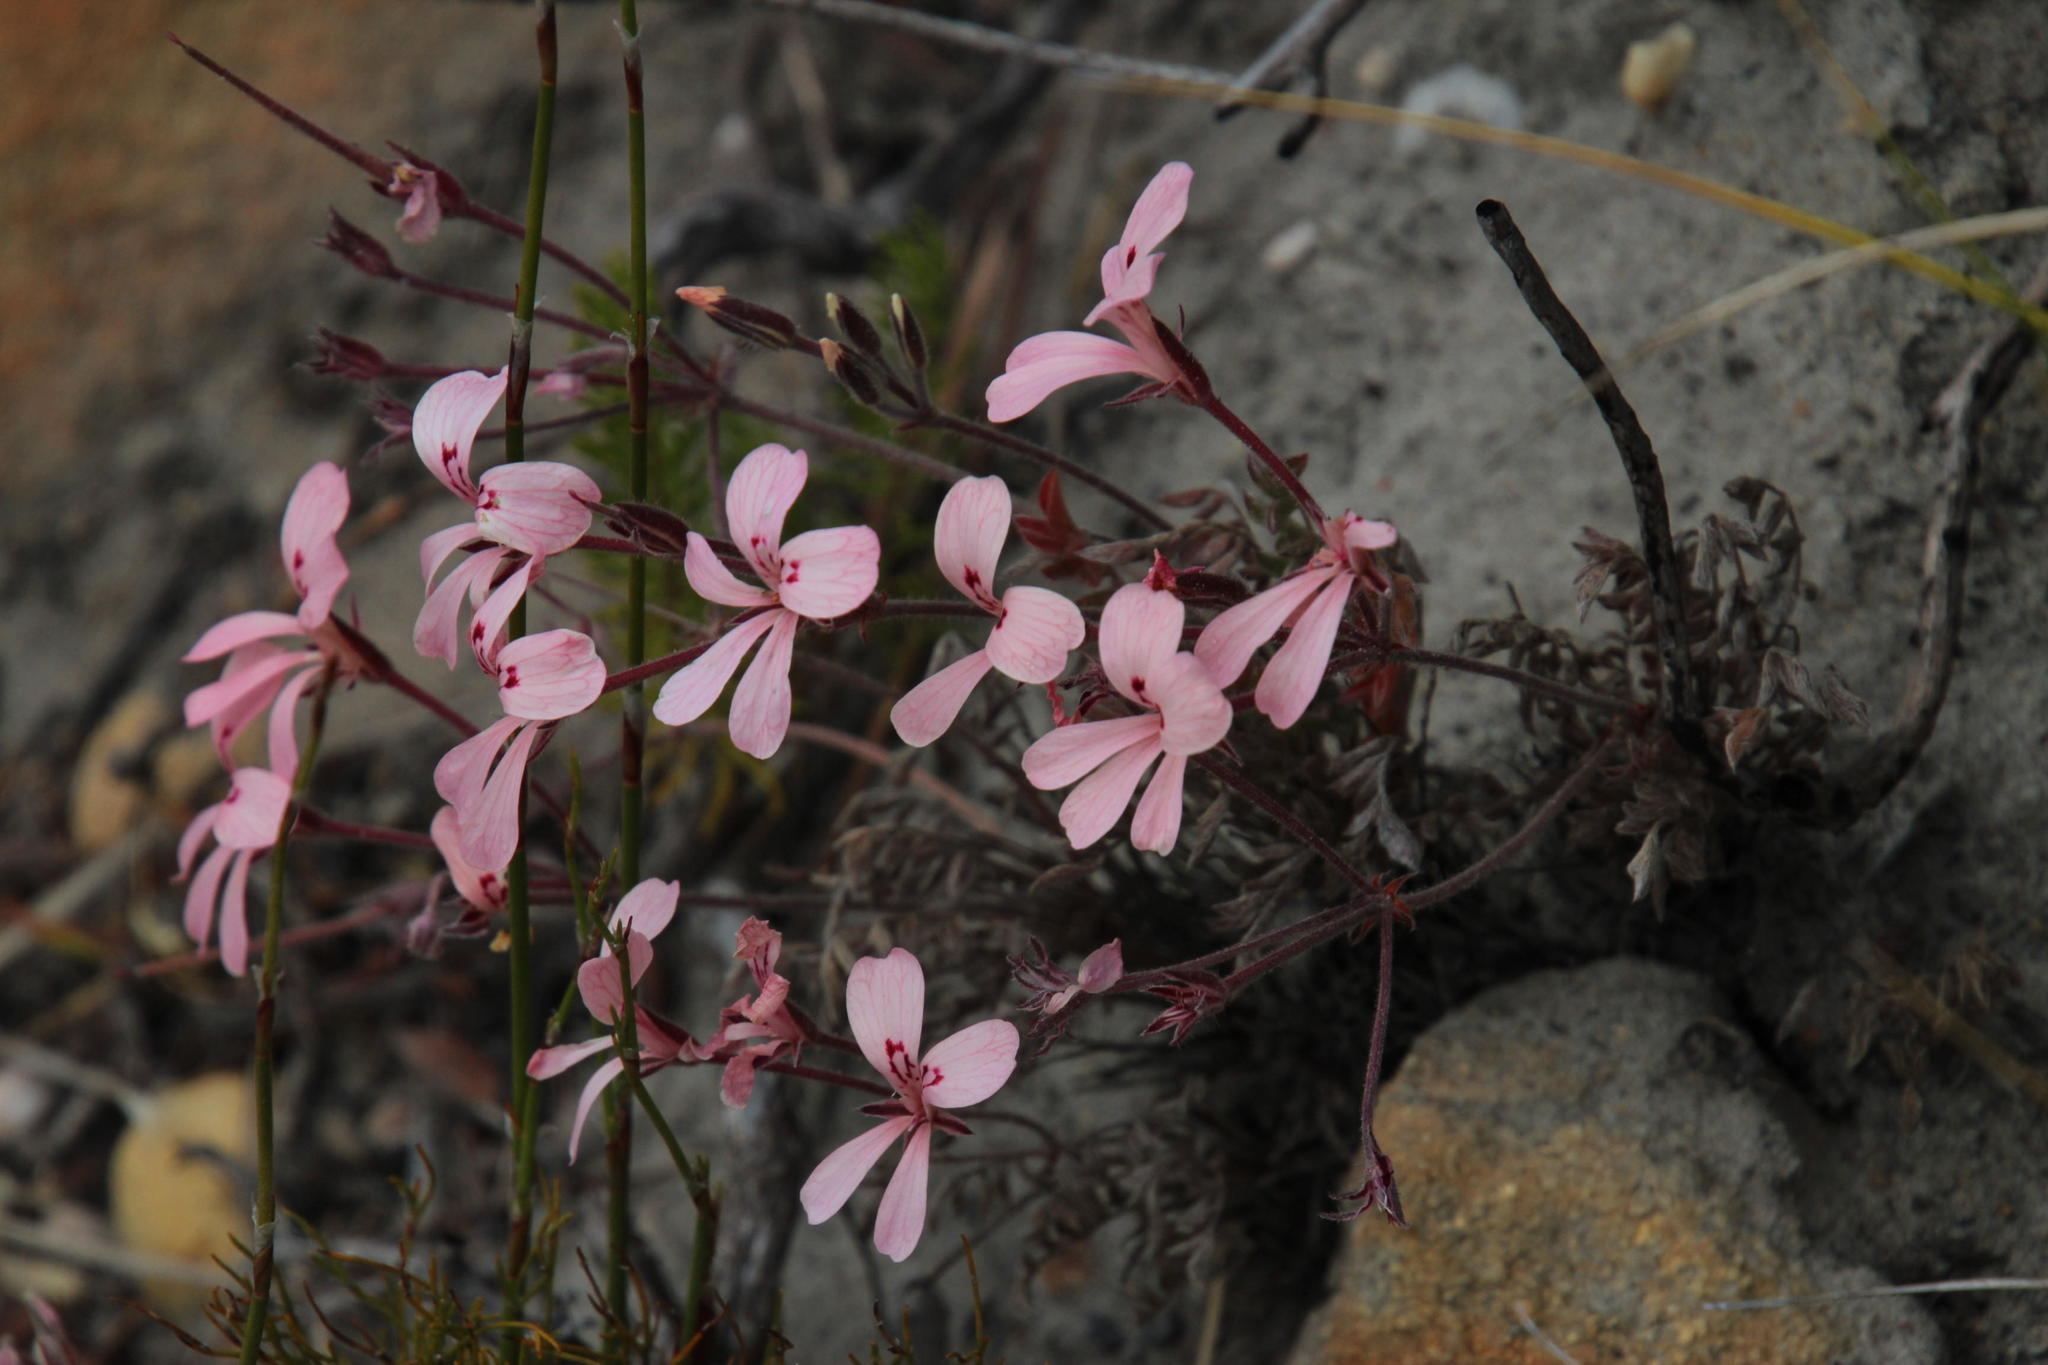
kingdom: Plantae
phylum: Tracheophyta
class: Magnoliopsida
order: Geraniales
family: Geraniaceae
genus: Pelargonium
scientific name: Pelargonium pinnatum
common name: Pinnated pelargonium
